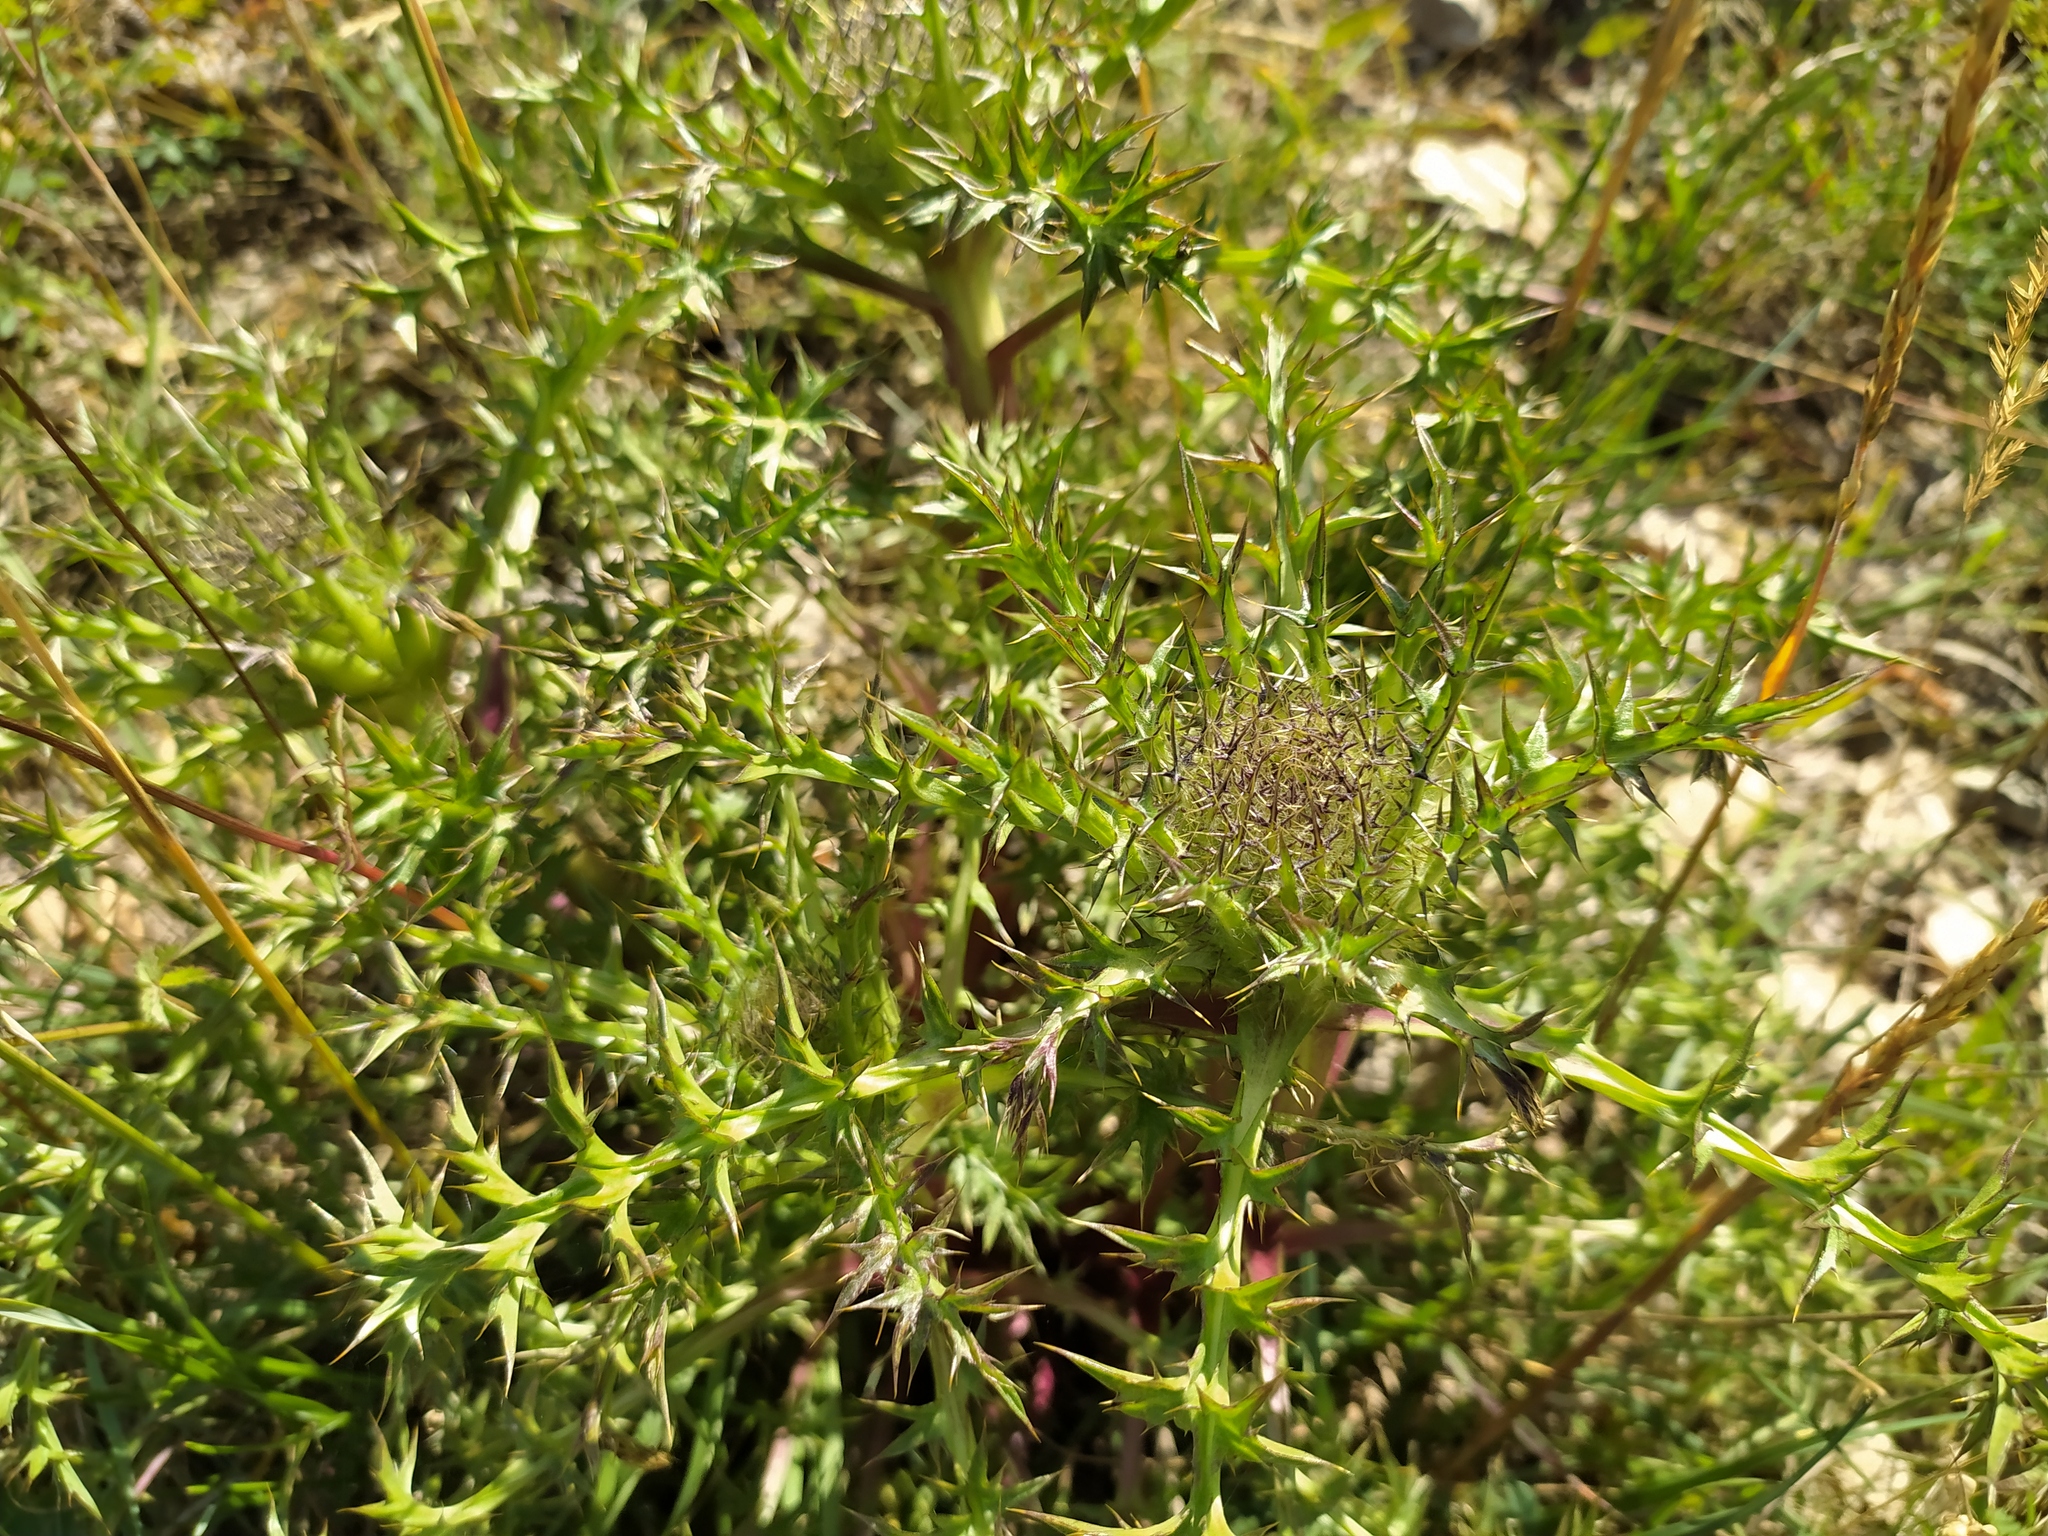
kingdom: Plantae
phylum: Tracheophyta
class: Magnoliopsida
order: Asterales
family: Asteraceae
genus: Carlina
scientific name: Carlina acaulis
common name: Stemless carline thistle
